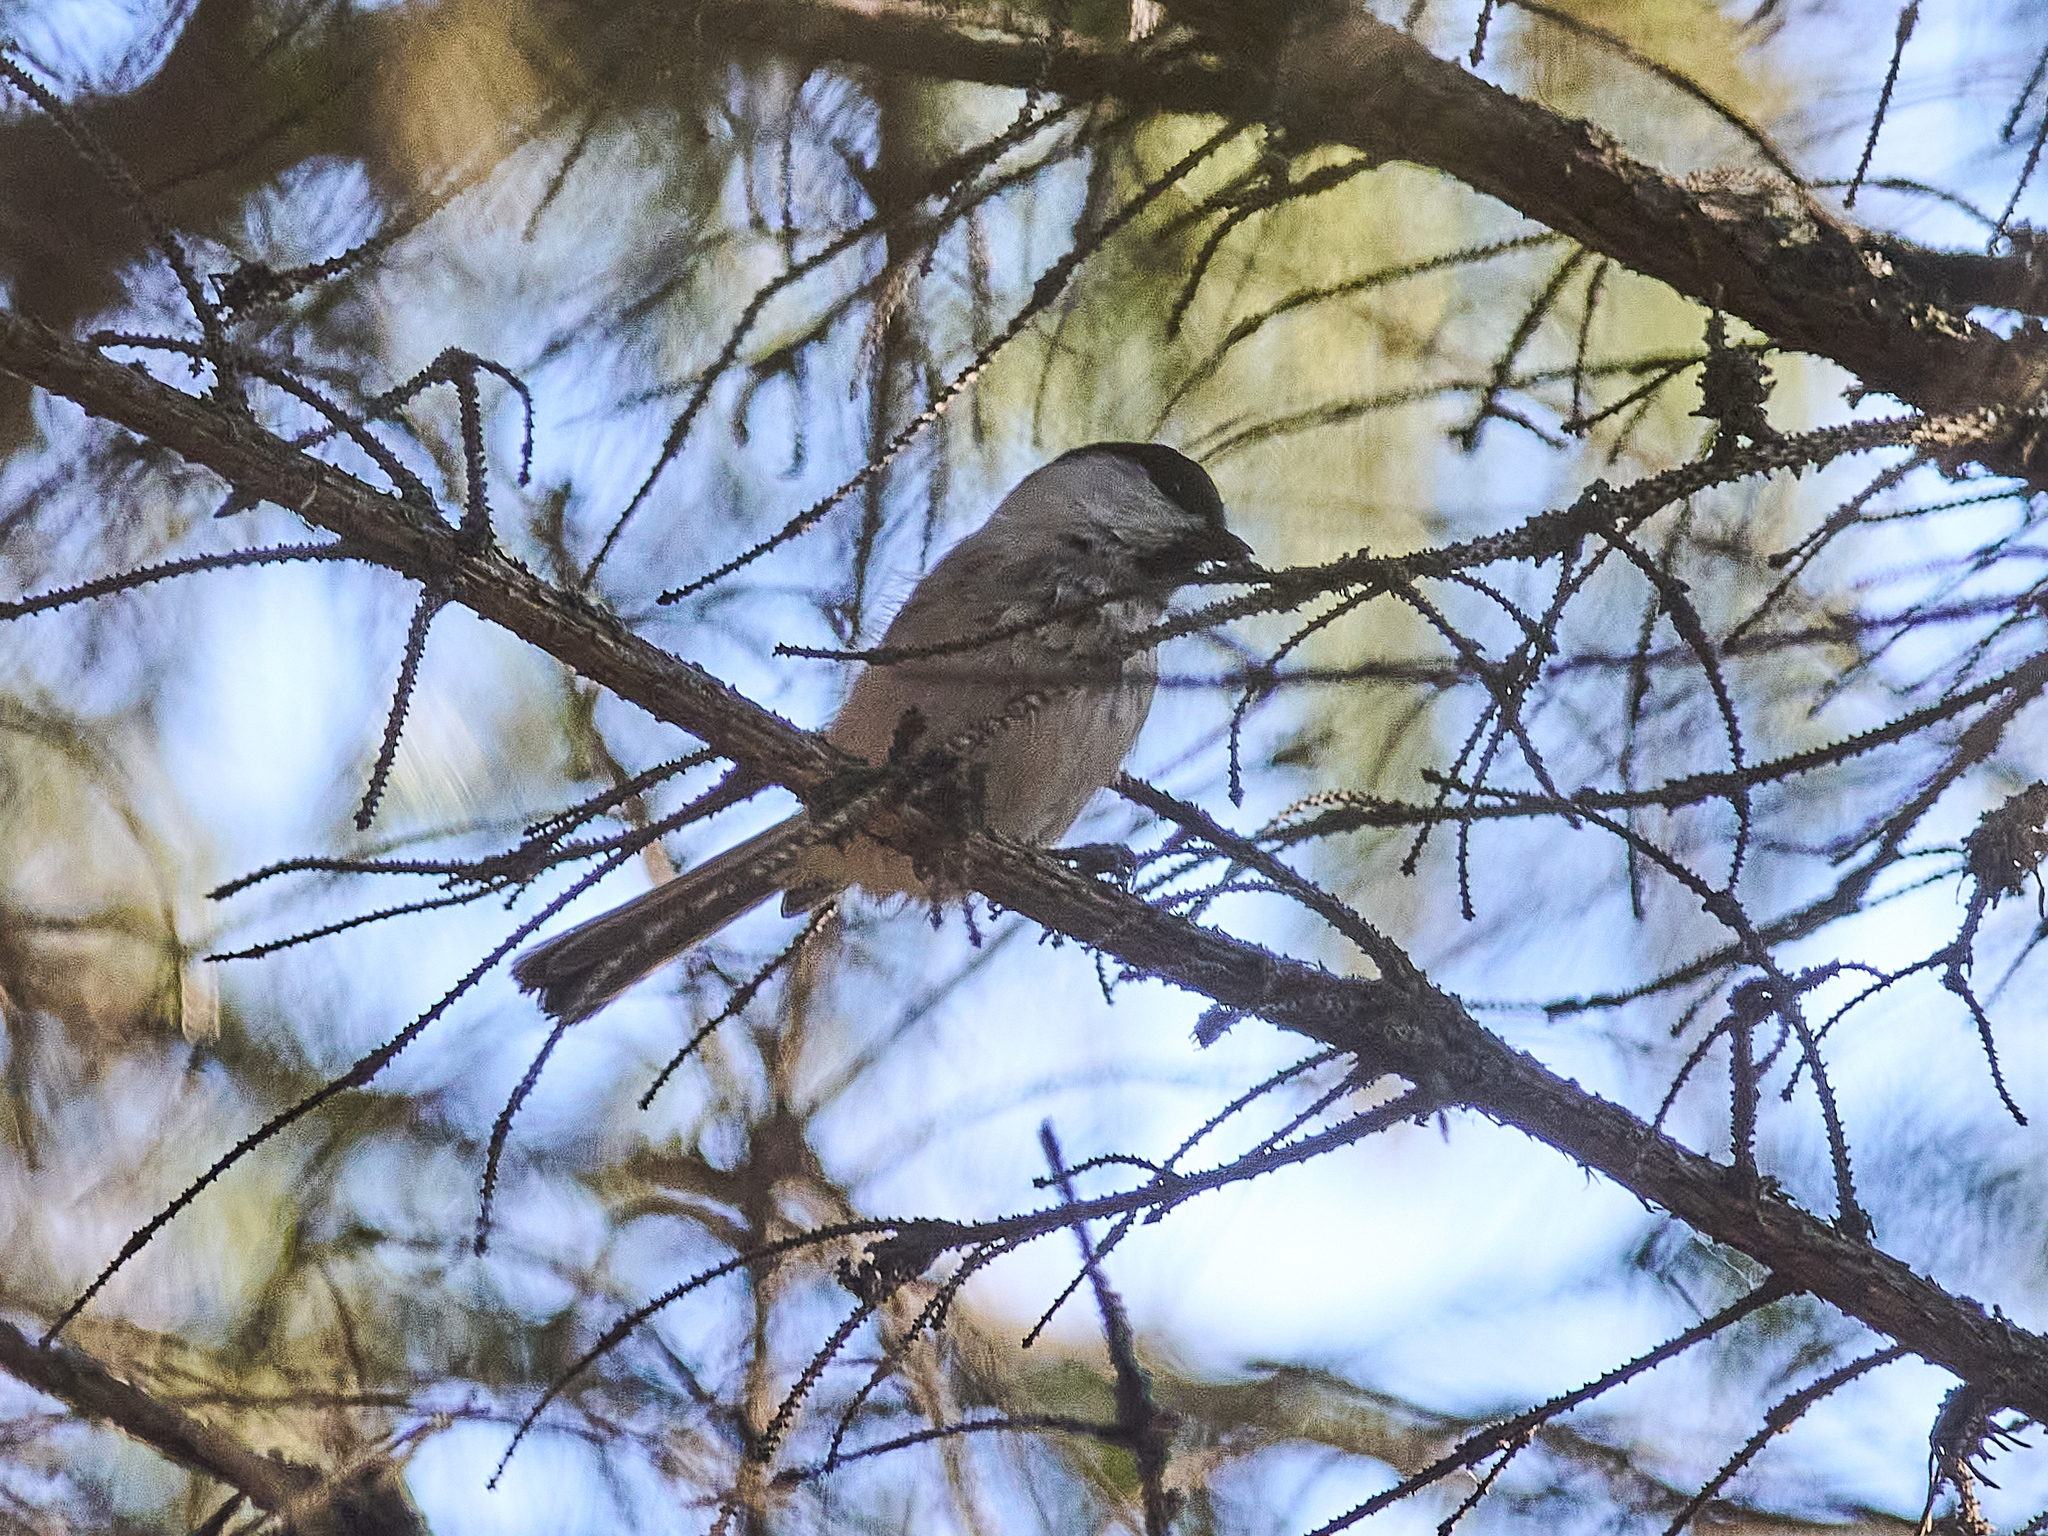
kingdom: Animalia
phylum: Chordata
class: Aves
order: Passeriformes
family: Paridae
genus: Poecile
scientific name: Poecile montanus
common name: Willow tit
